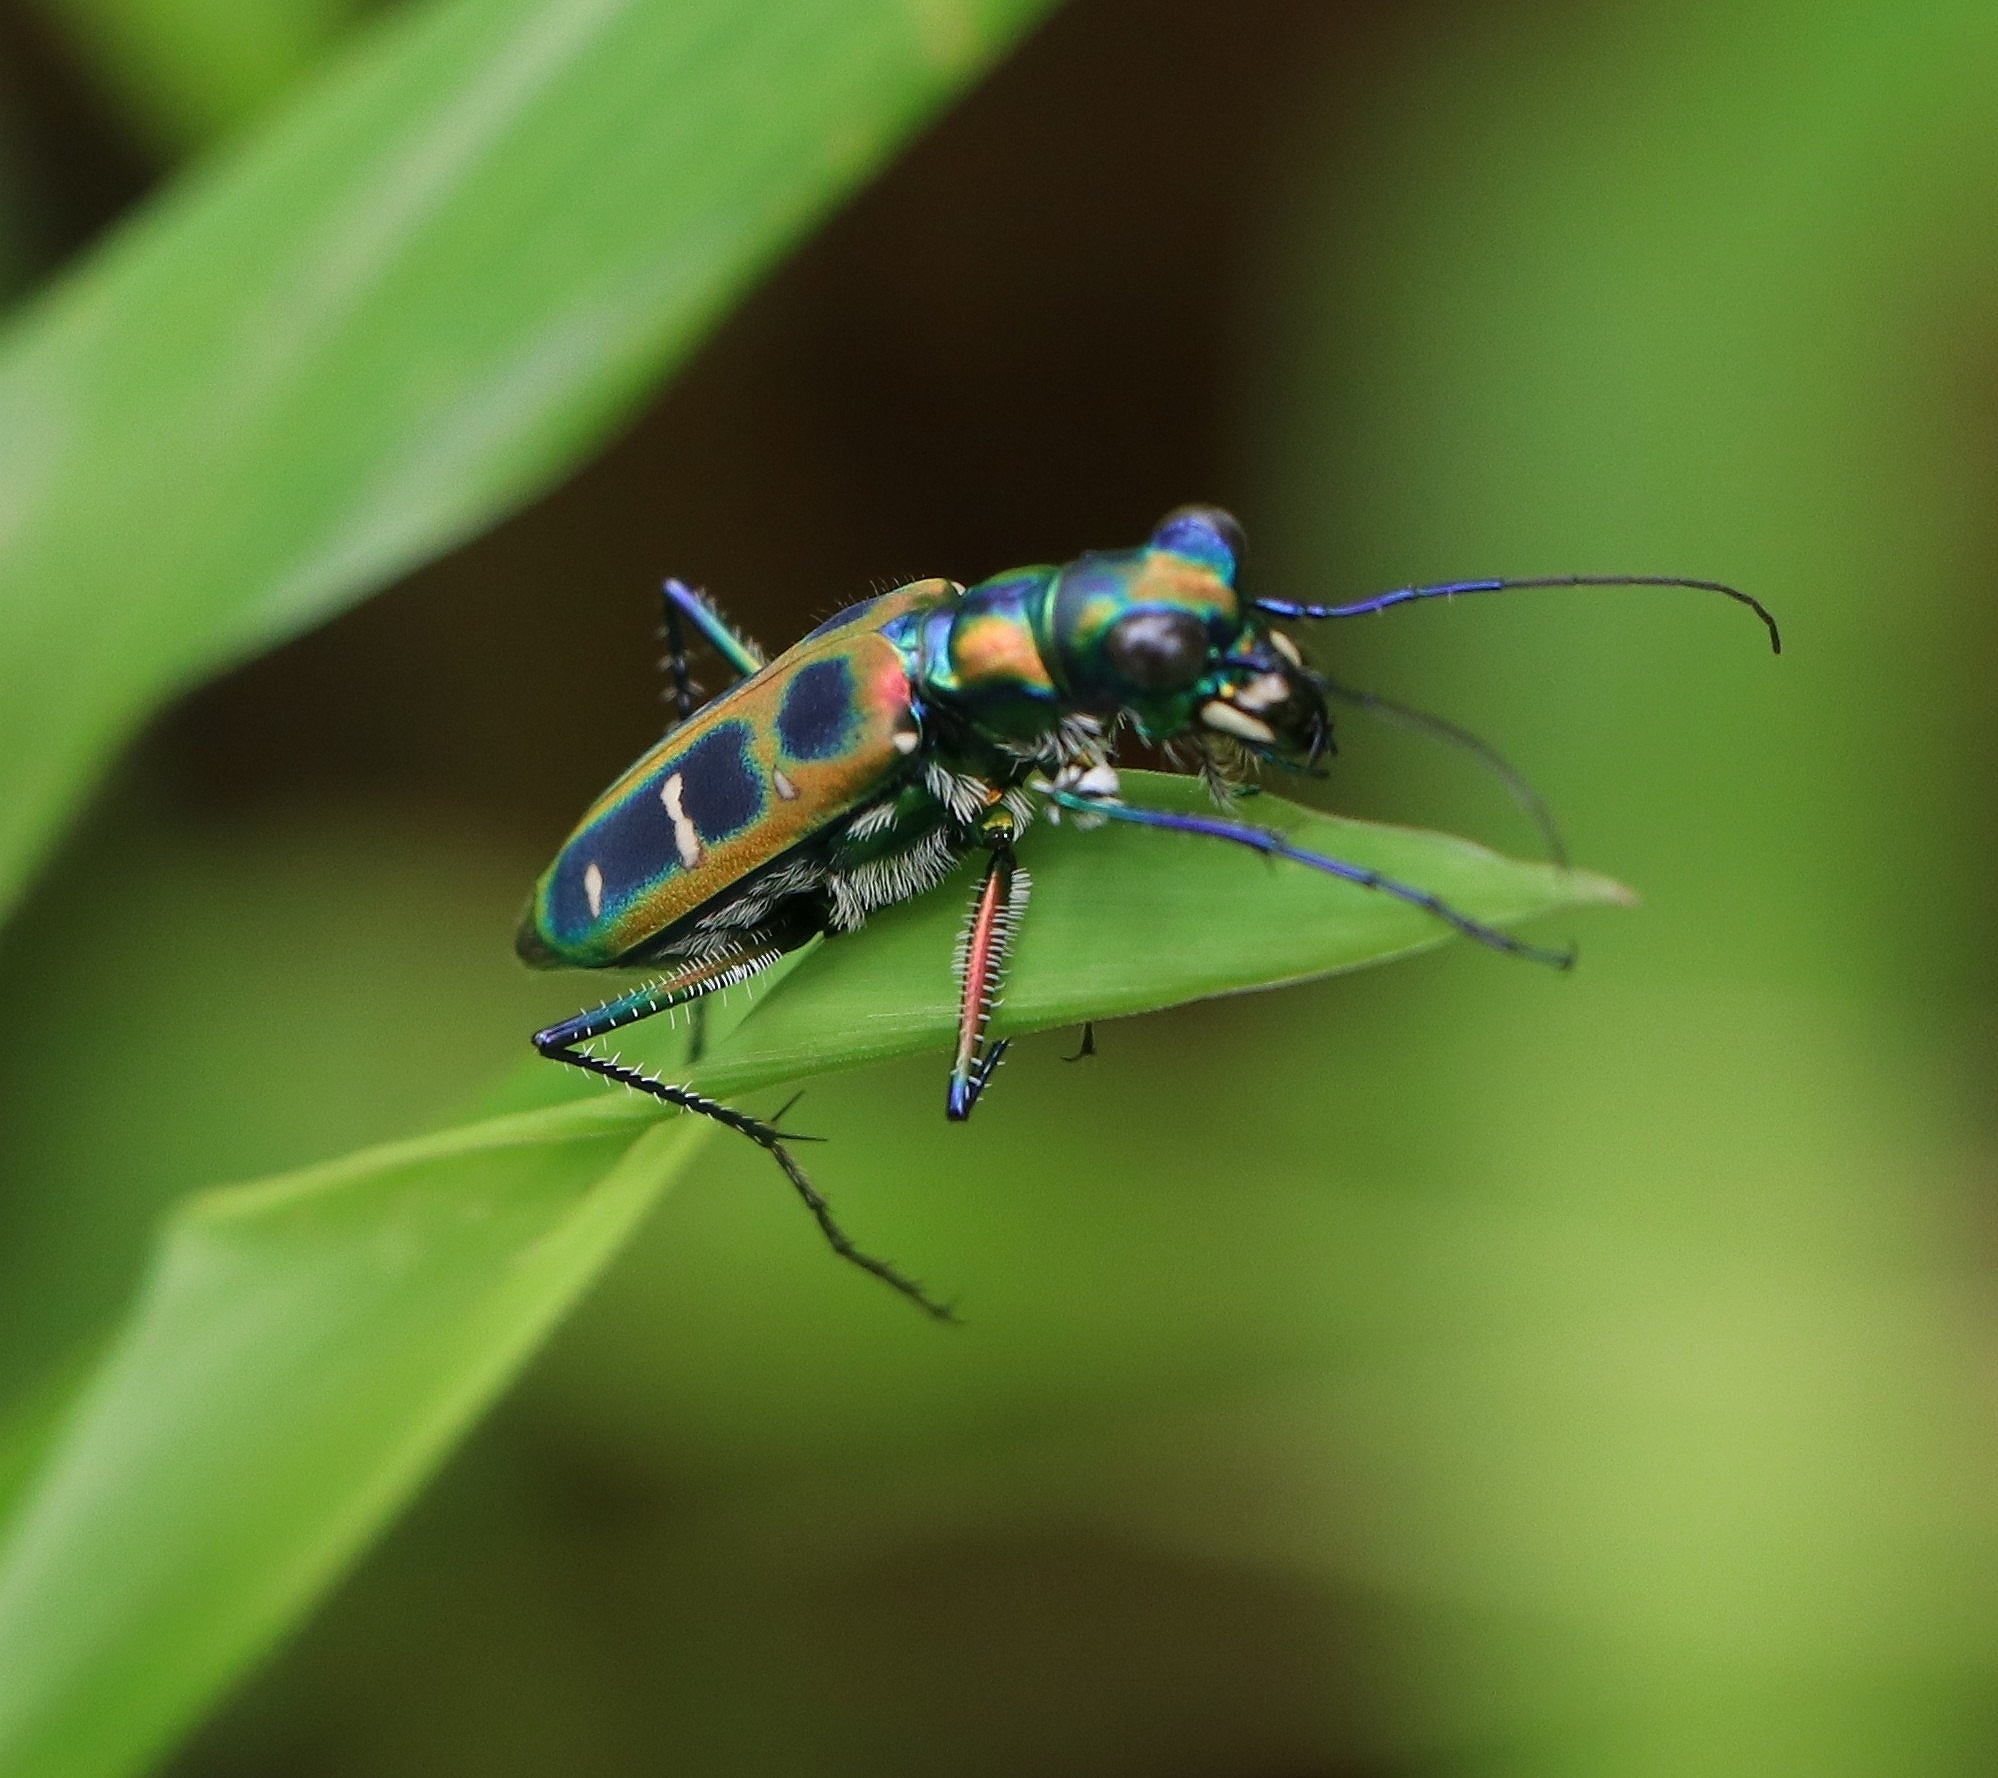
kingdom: Animalia
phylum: Arthropoda
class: Insecta
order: Coleoptera
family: Carabidae
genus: Cicindela
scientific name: Cicindela barmanica
